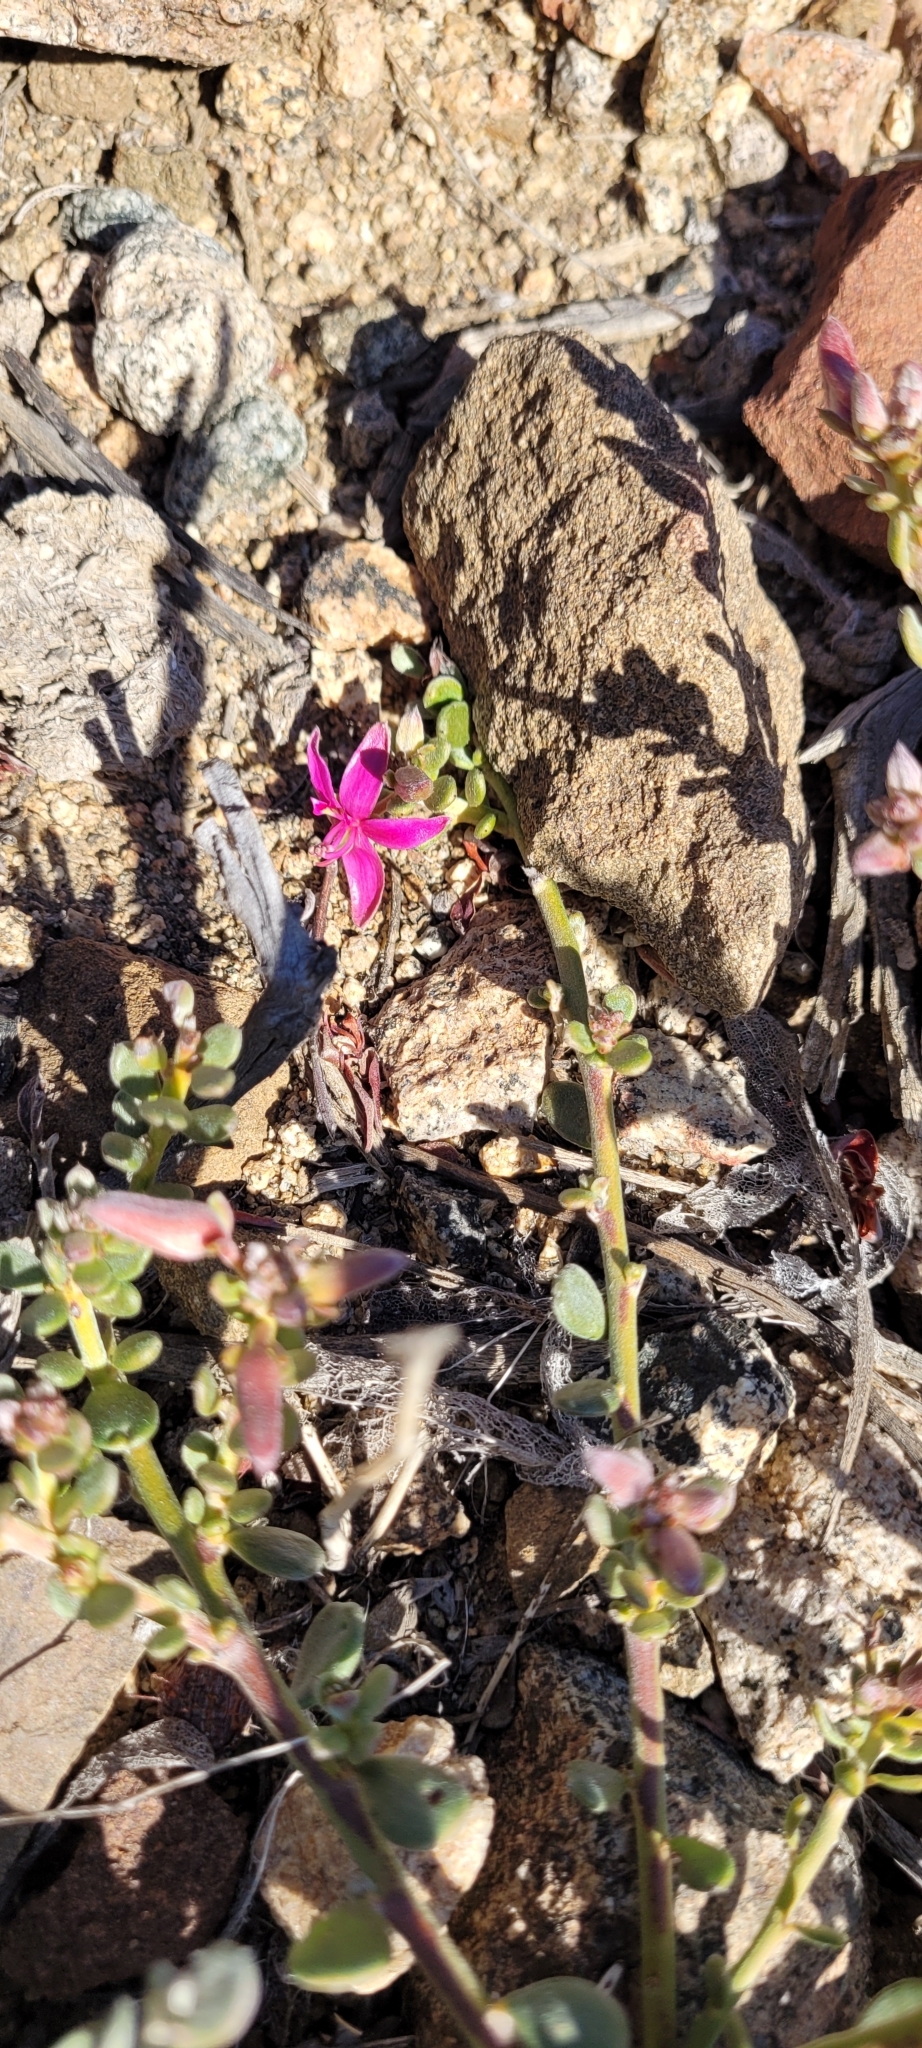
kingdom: Plantae
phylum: Tracheophyta
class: Magnoliopsida
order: Zygophyllales
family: Krameriaceae
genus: Krameria
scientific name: Krameria cistoidea
